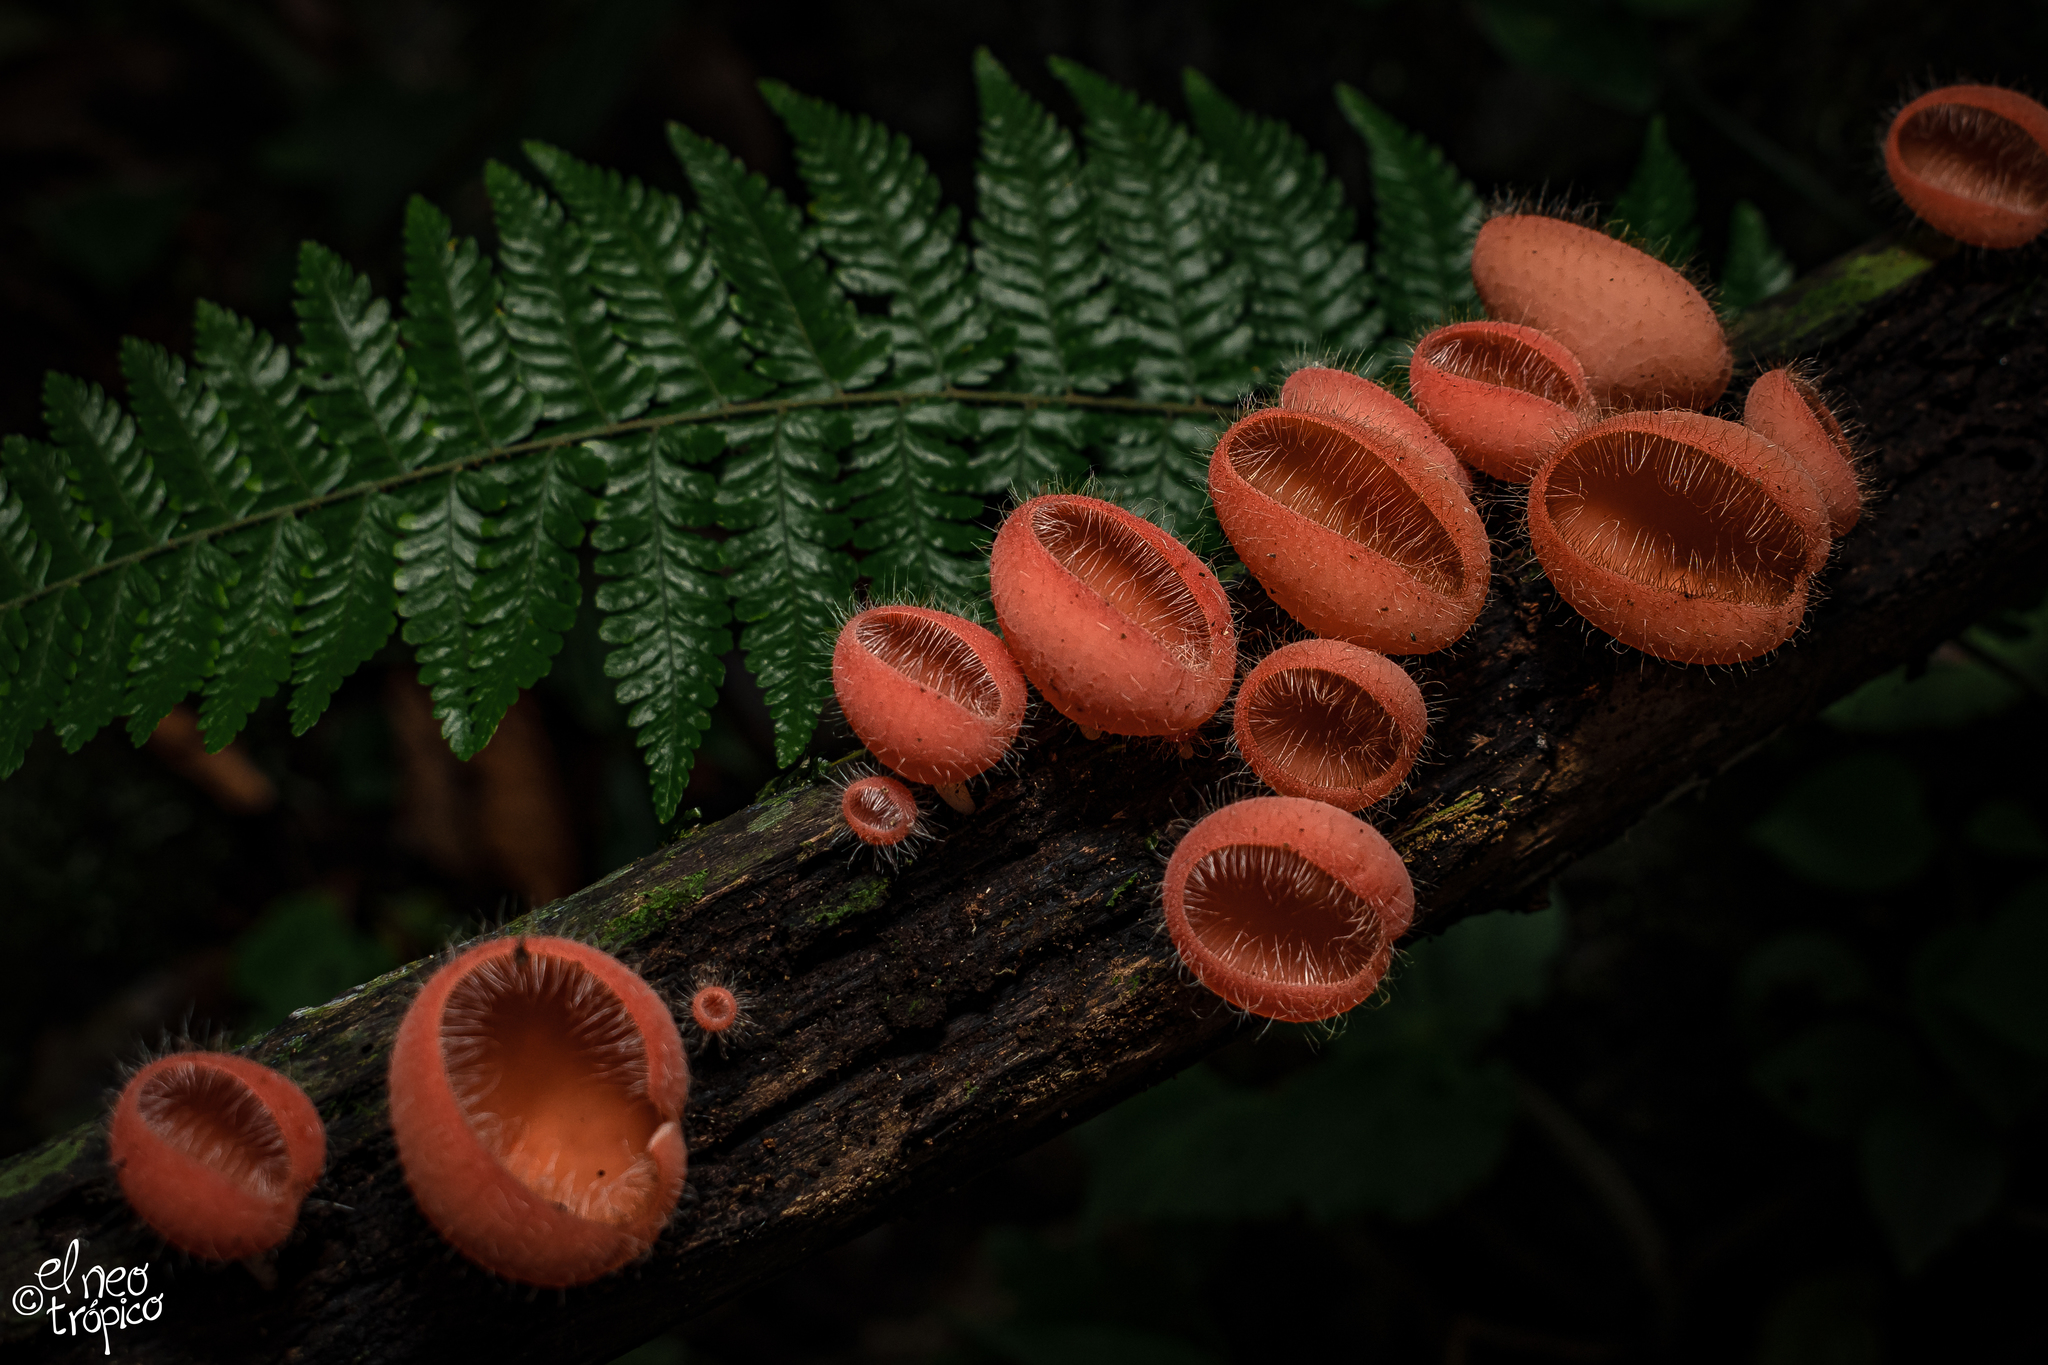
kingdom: Fungi
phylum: Ascomycota
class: Pezizomycetes
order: Pezizales
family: Sarcoscyphaceae
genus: Cookeina
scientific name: Cookeina tricholoma
